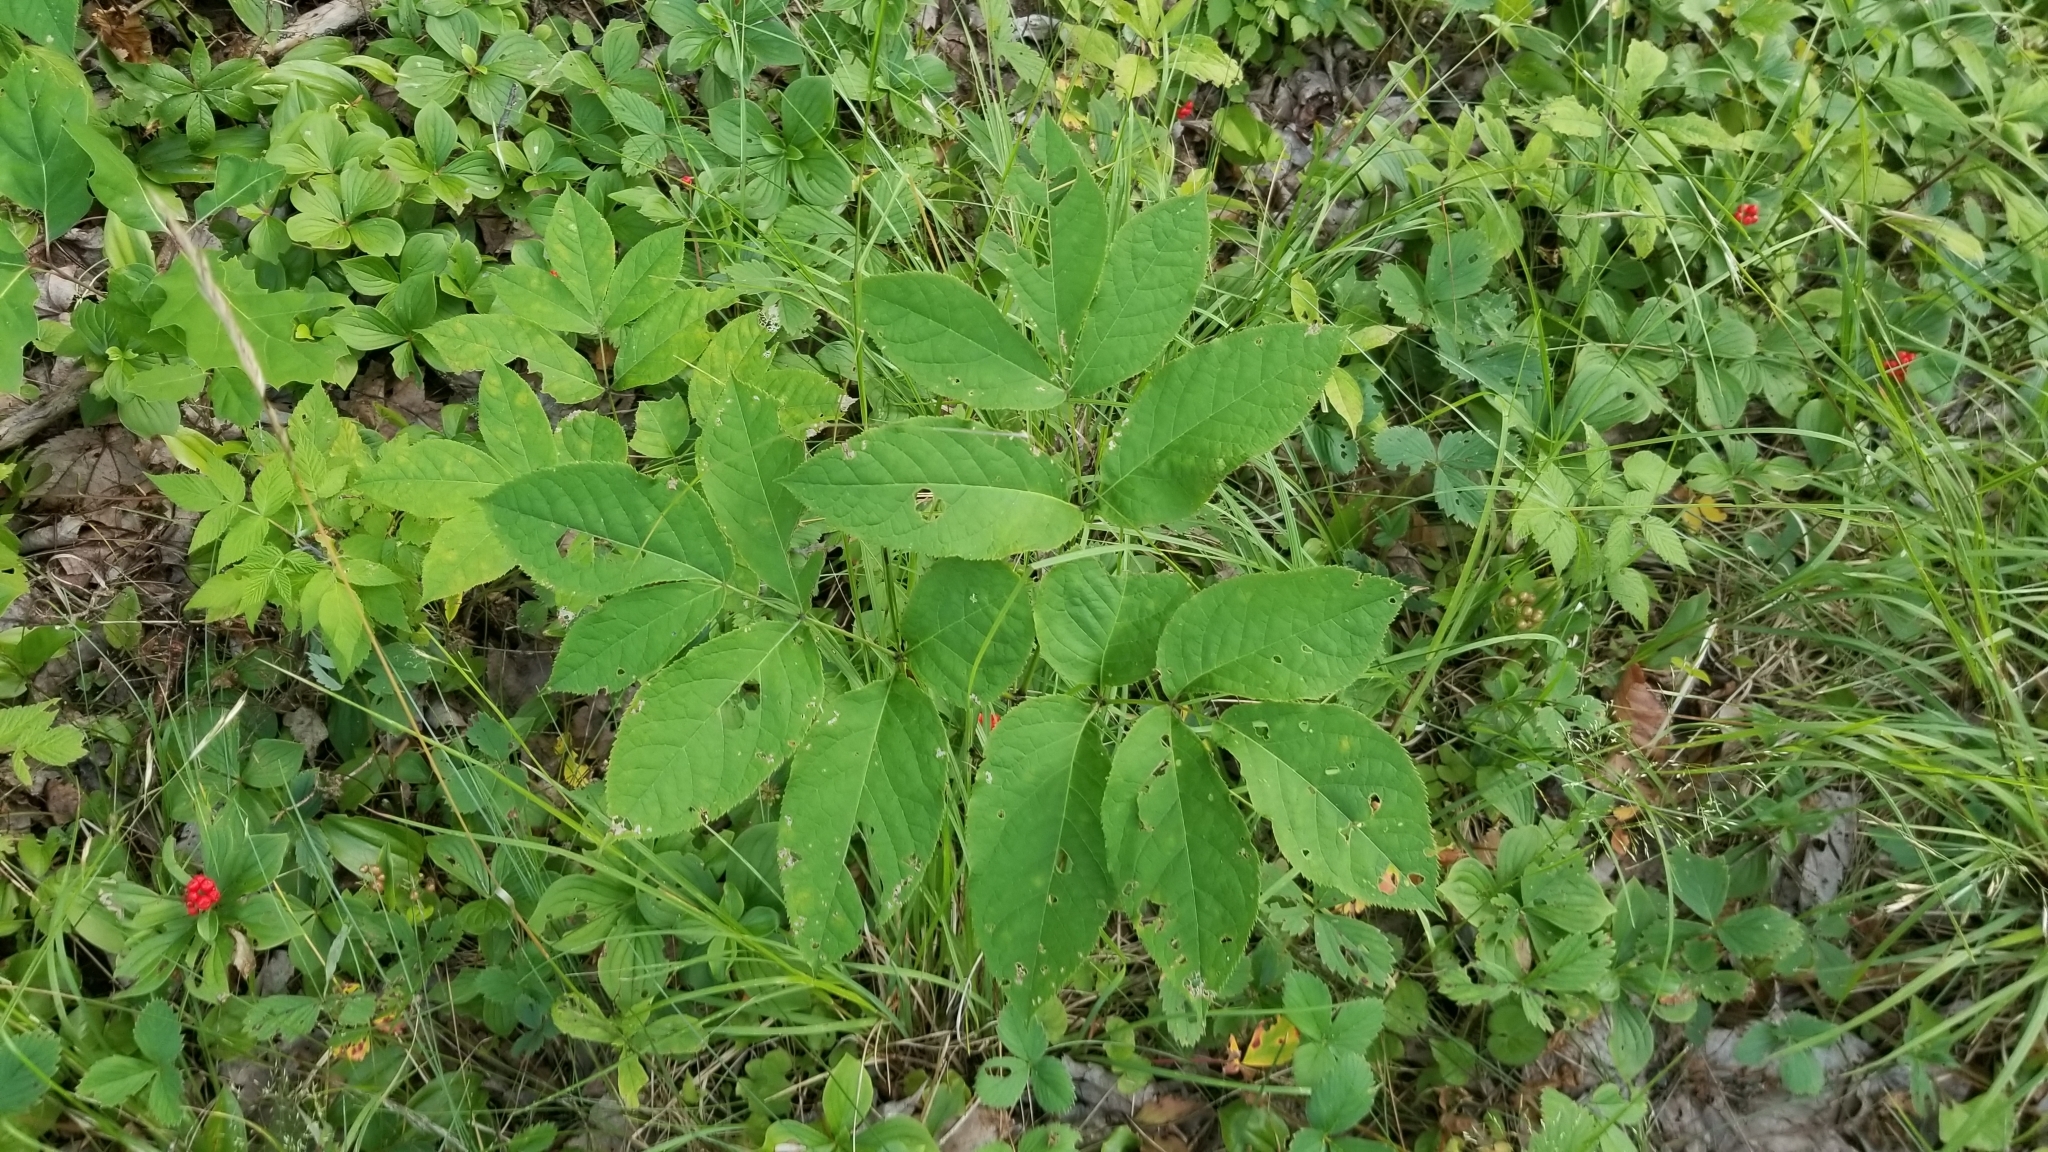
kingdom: Plantae
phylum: Tracheophyta
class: Magnoliopsida
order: Apiales
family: Araliaceae
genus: Aralia
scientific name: Aralia nudicaulis
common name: Wild sarsaparilla
